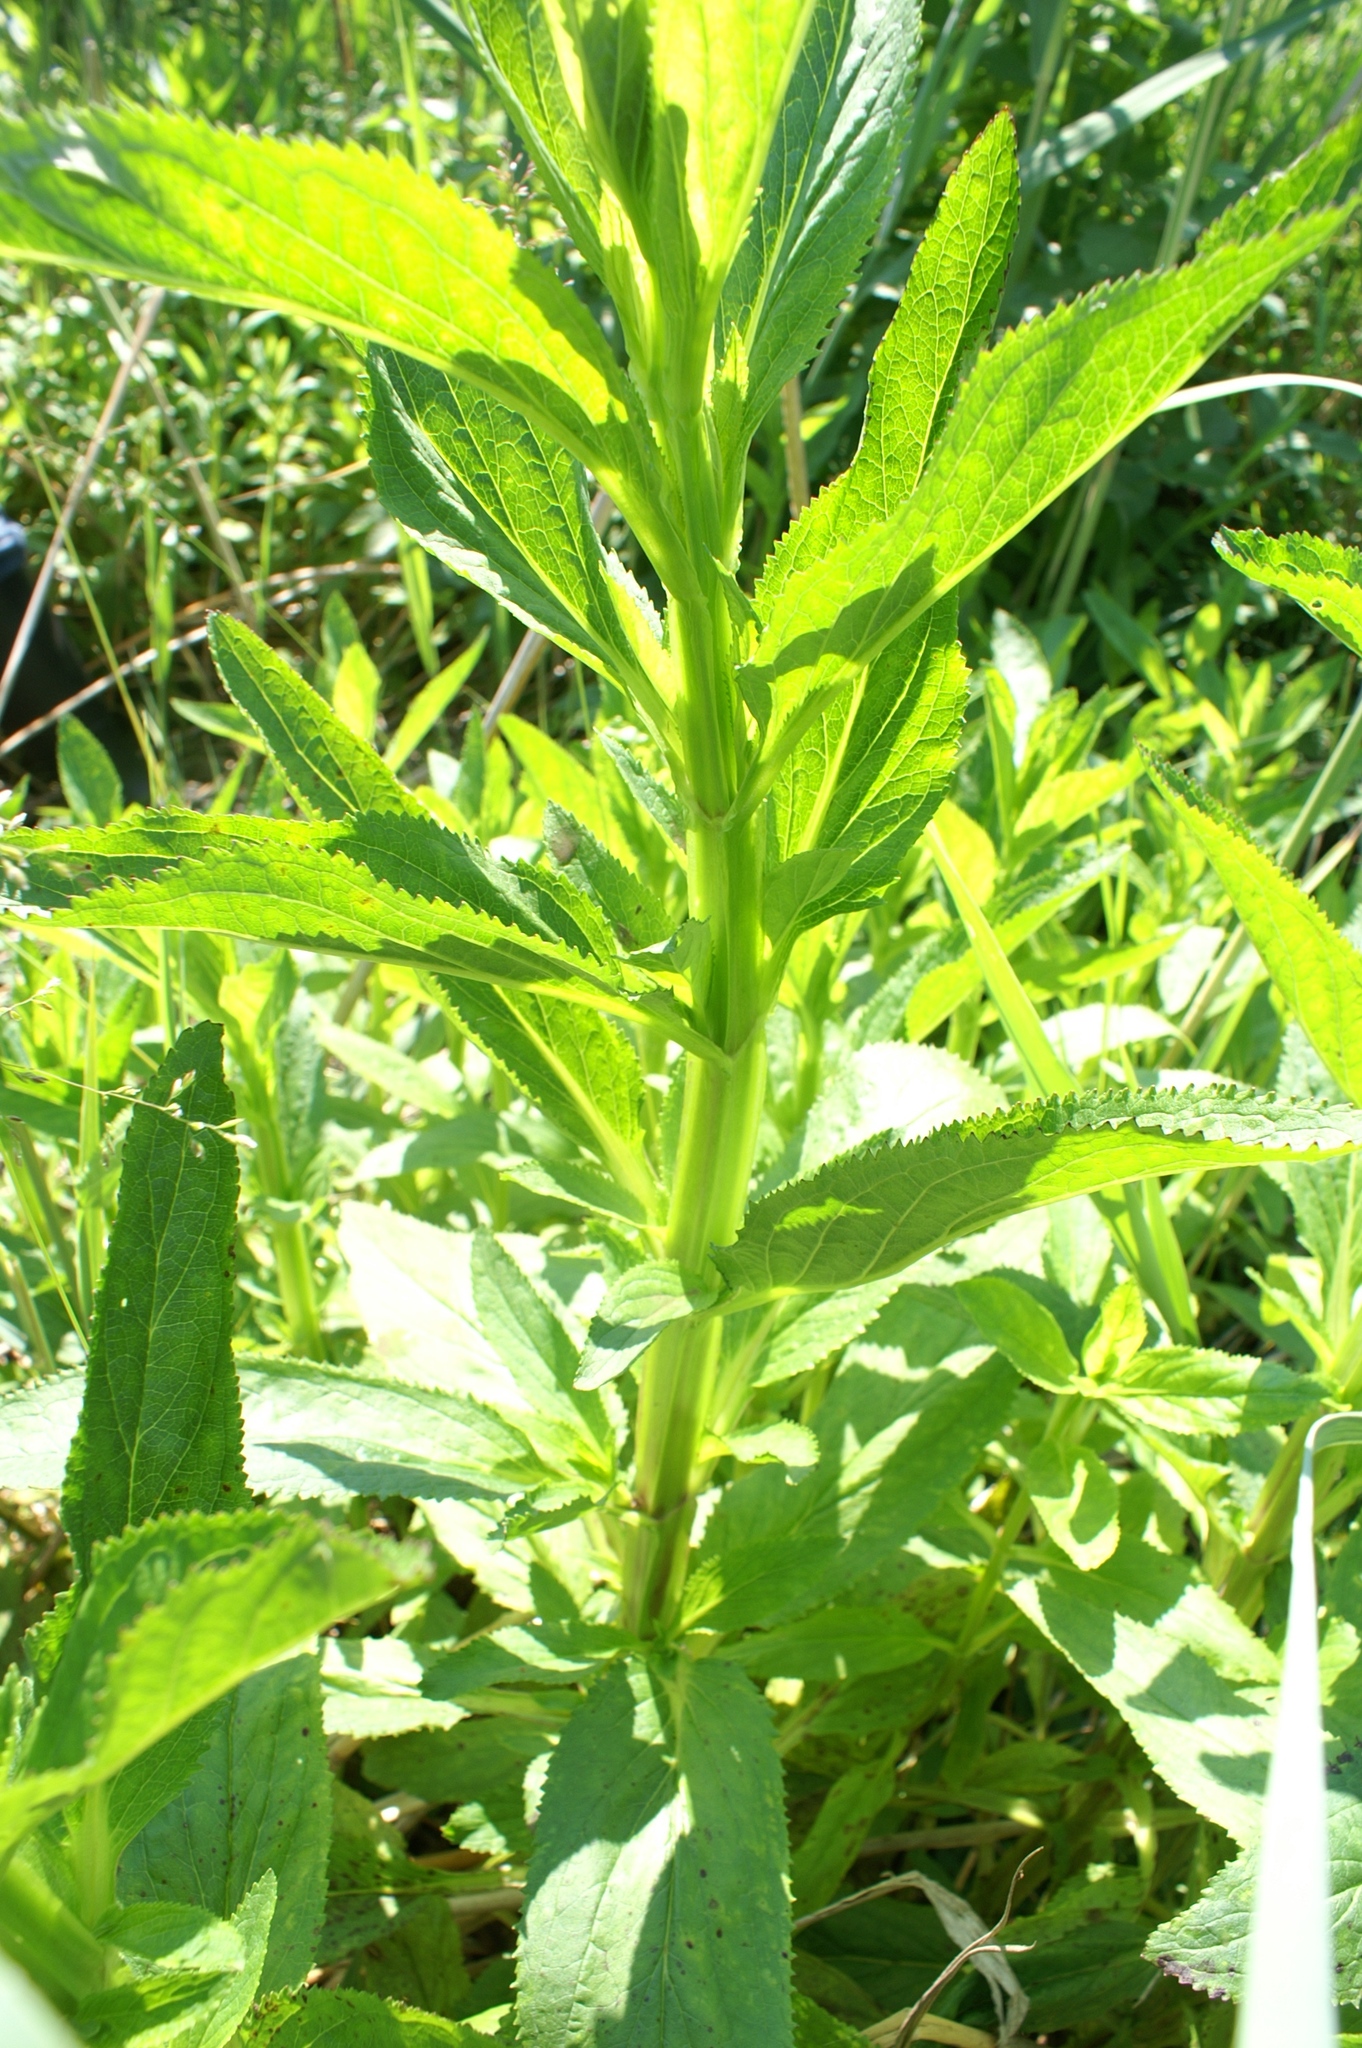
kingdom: Plantae
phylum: Tracheophyta
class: Magnoliopsida
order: Lamiales
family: Scrophulariaceae
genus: Scrophularia
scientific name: Scrophularia umbrosa
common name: Green figwort
